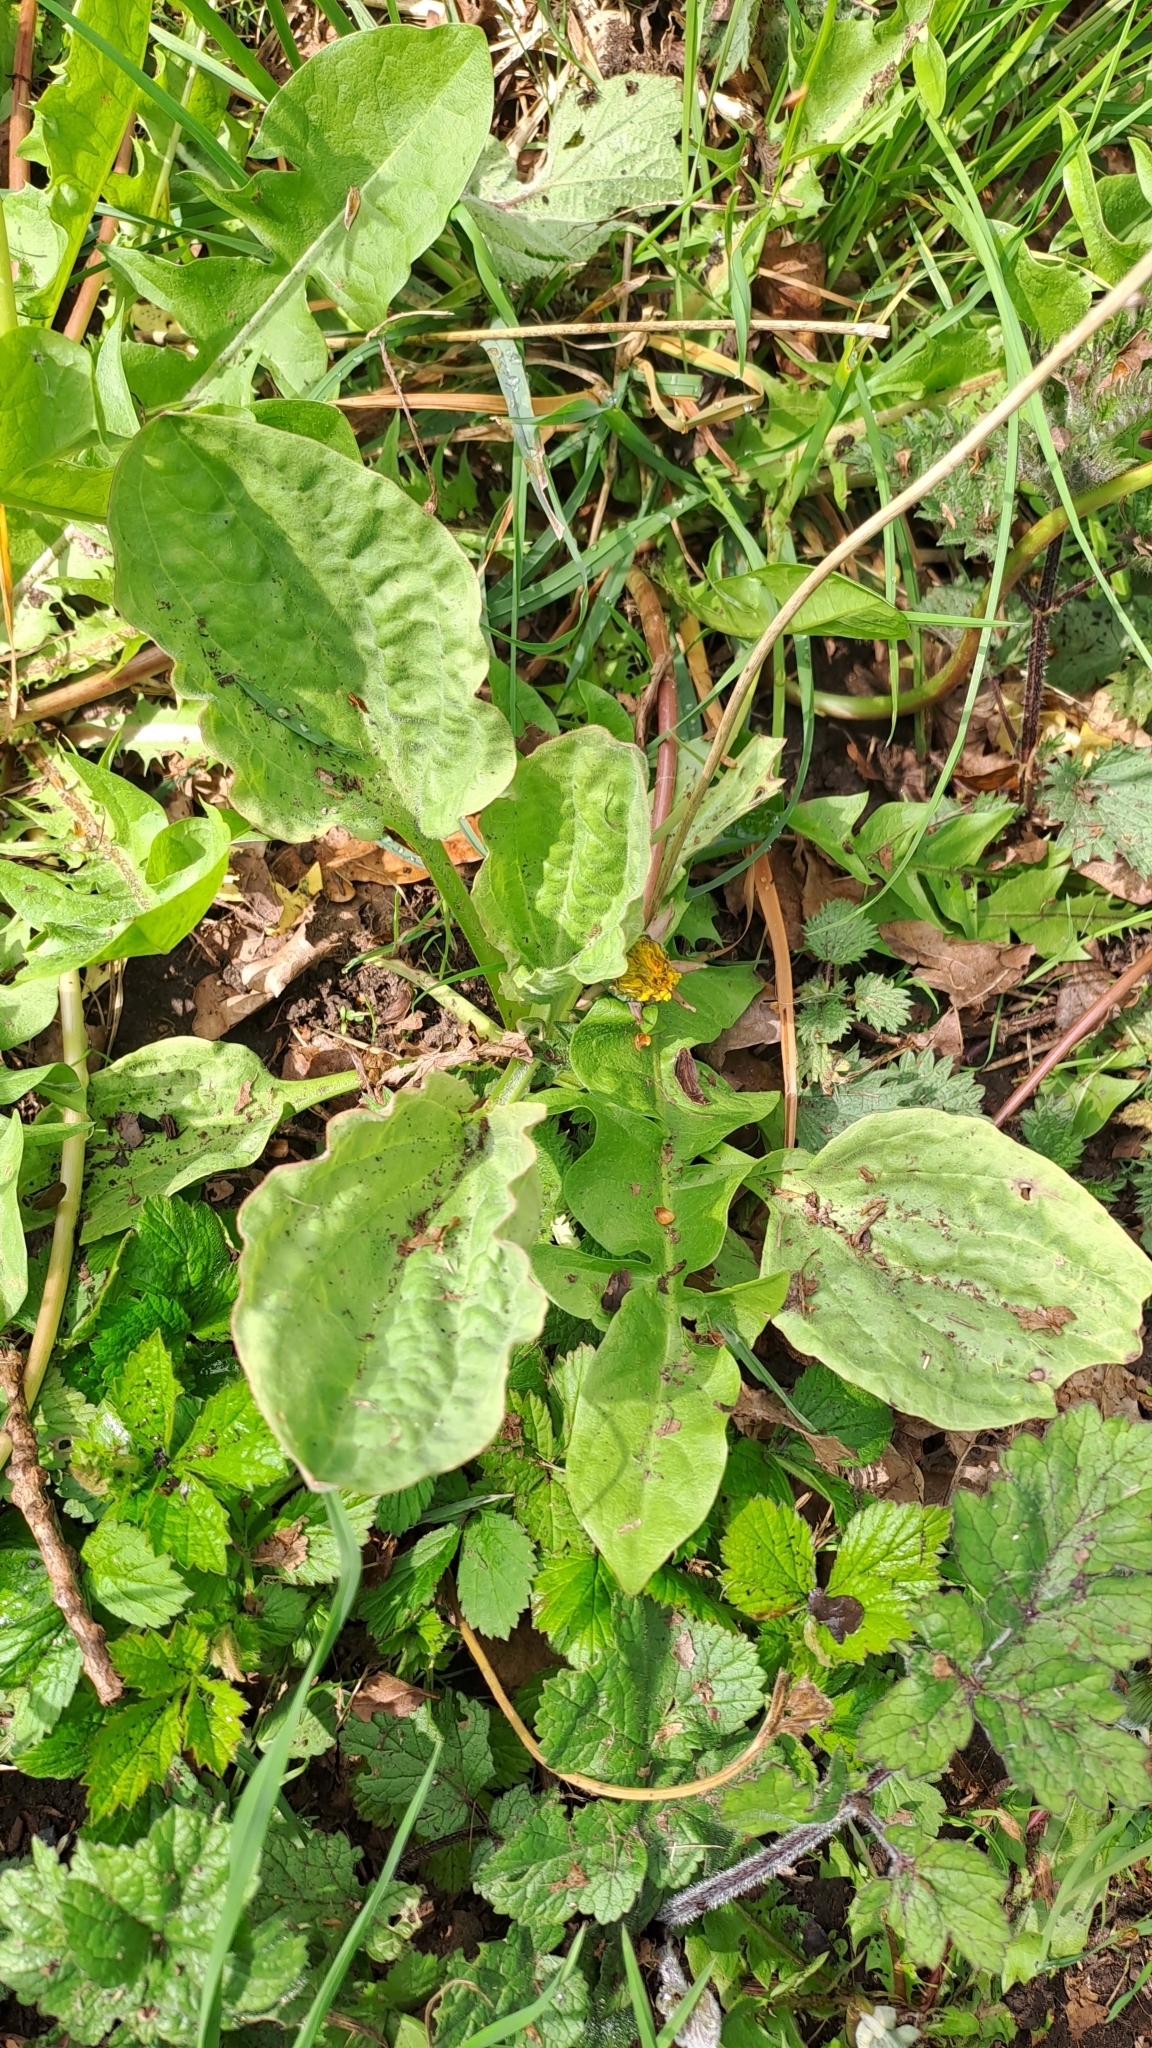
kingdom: Plantae
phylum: Tracheophyta
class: Magnoliopsida
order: Lamiales
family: Plantaginaceae
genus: Plantago
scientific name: Plantago major
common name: Common plantain
